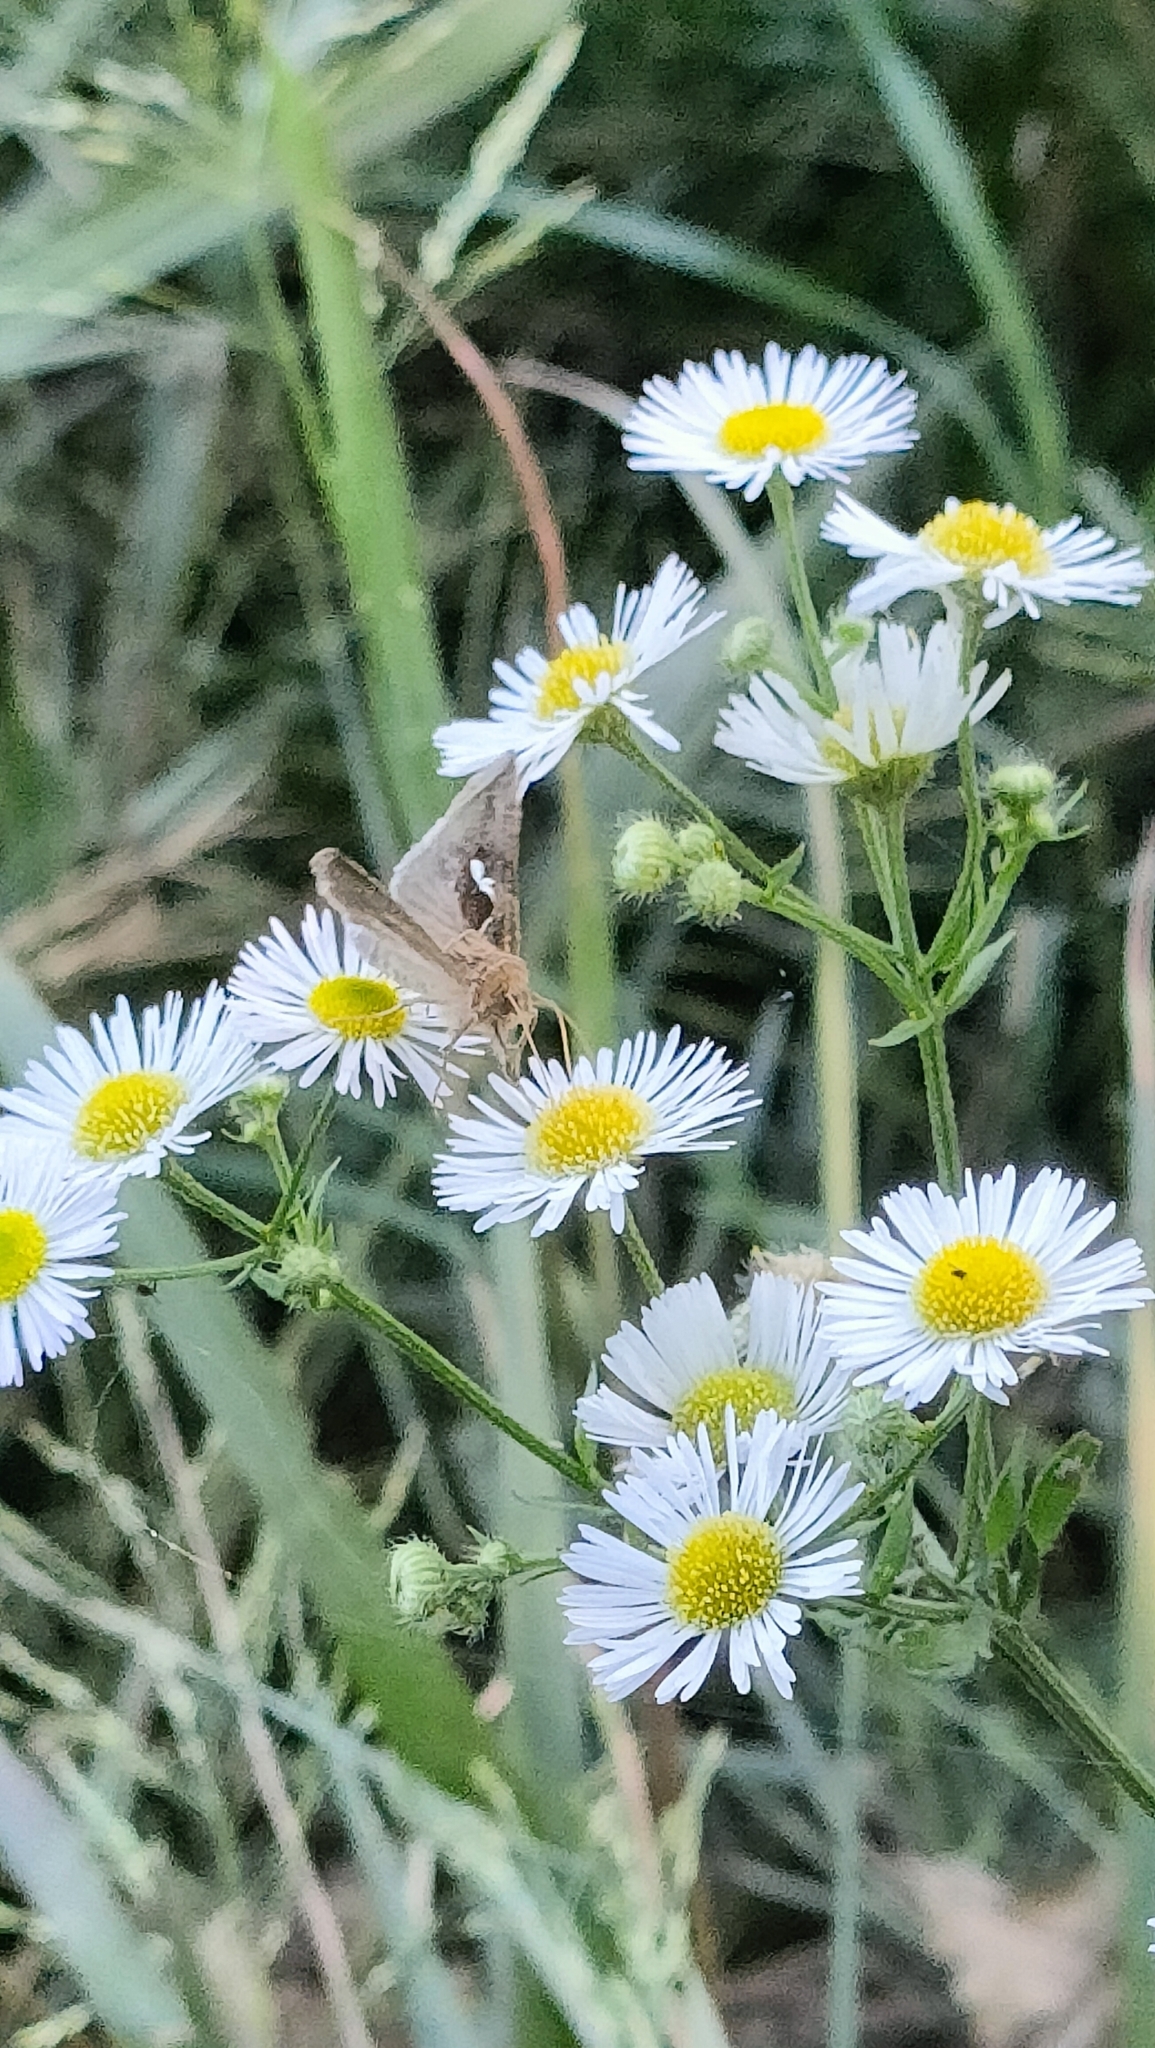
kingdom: Animalia
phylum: Arthropoda
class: Insecta
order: Lepidoptera
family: Noctuidae
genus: Macdunnoughia
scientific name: Macdunnoughia confusa
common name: Dewick's plusia
